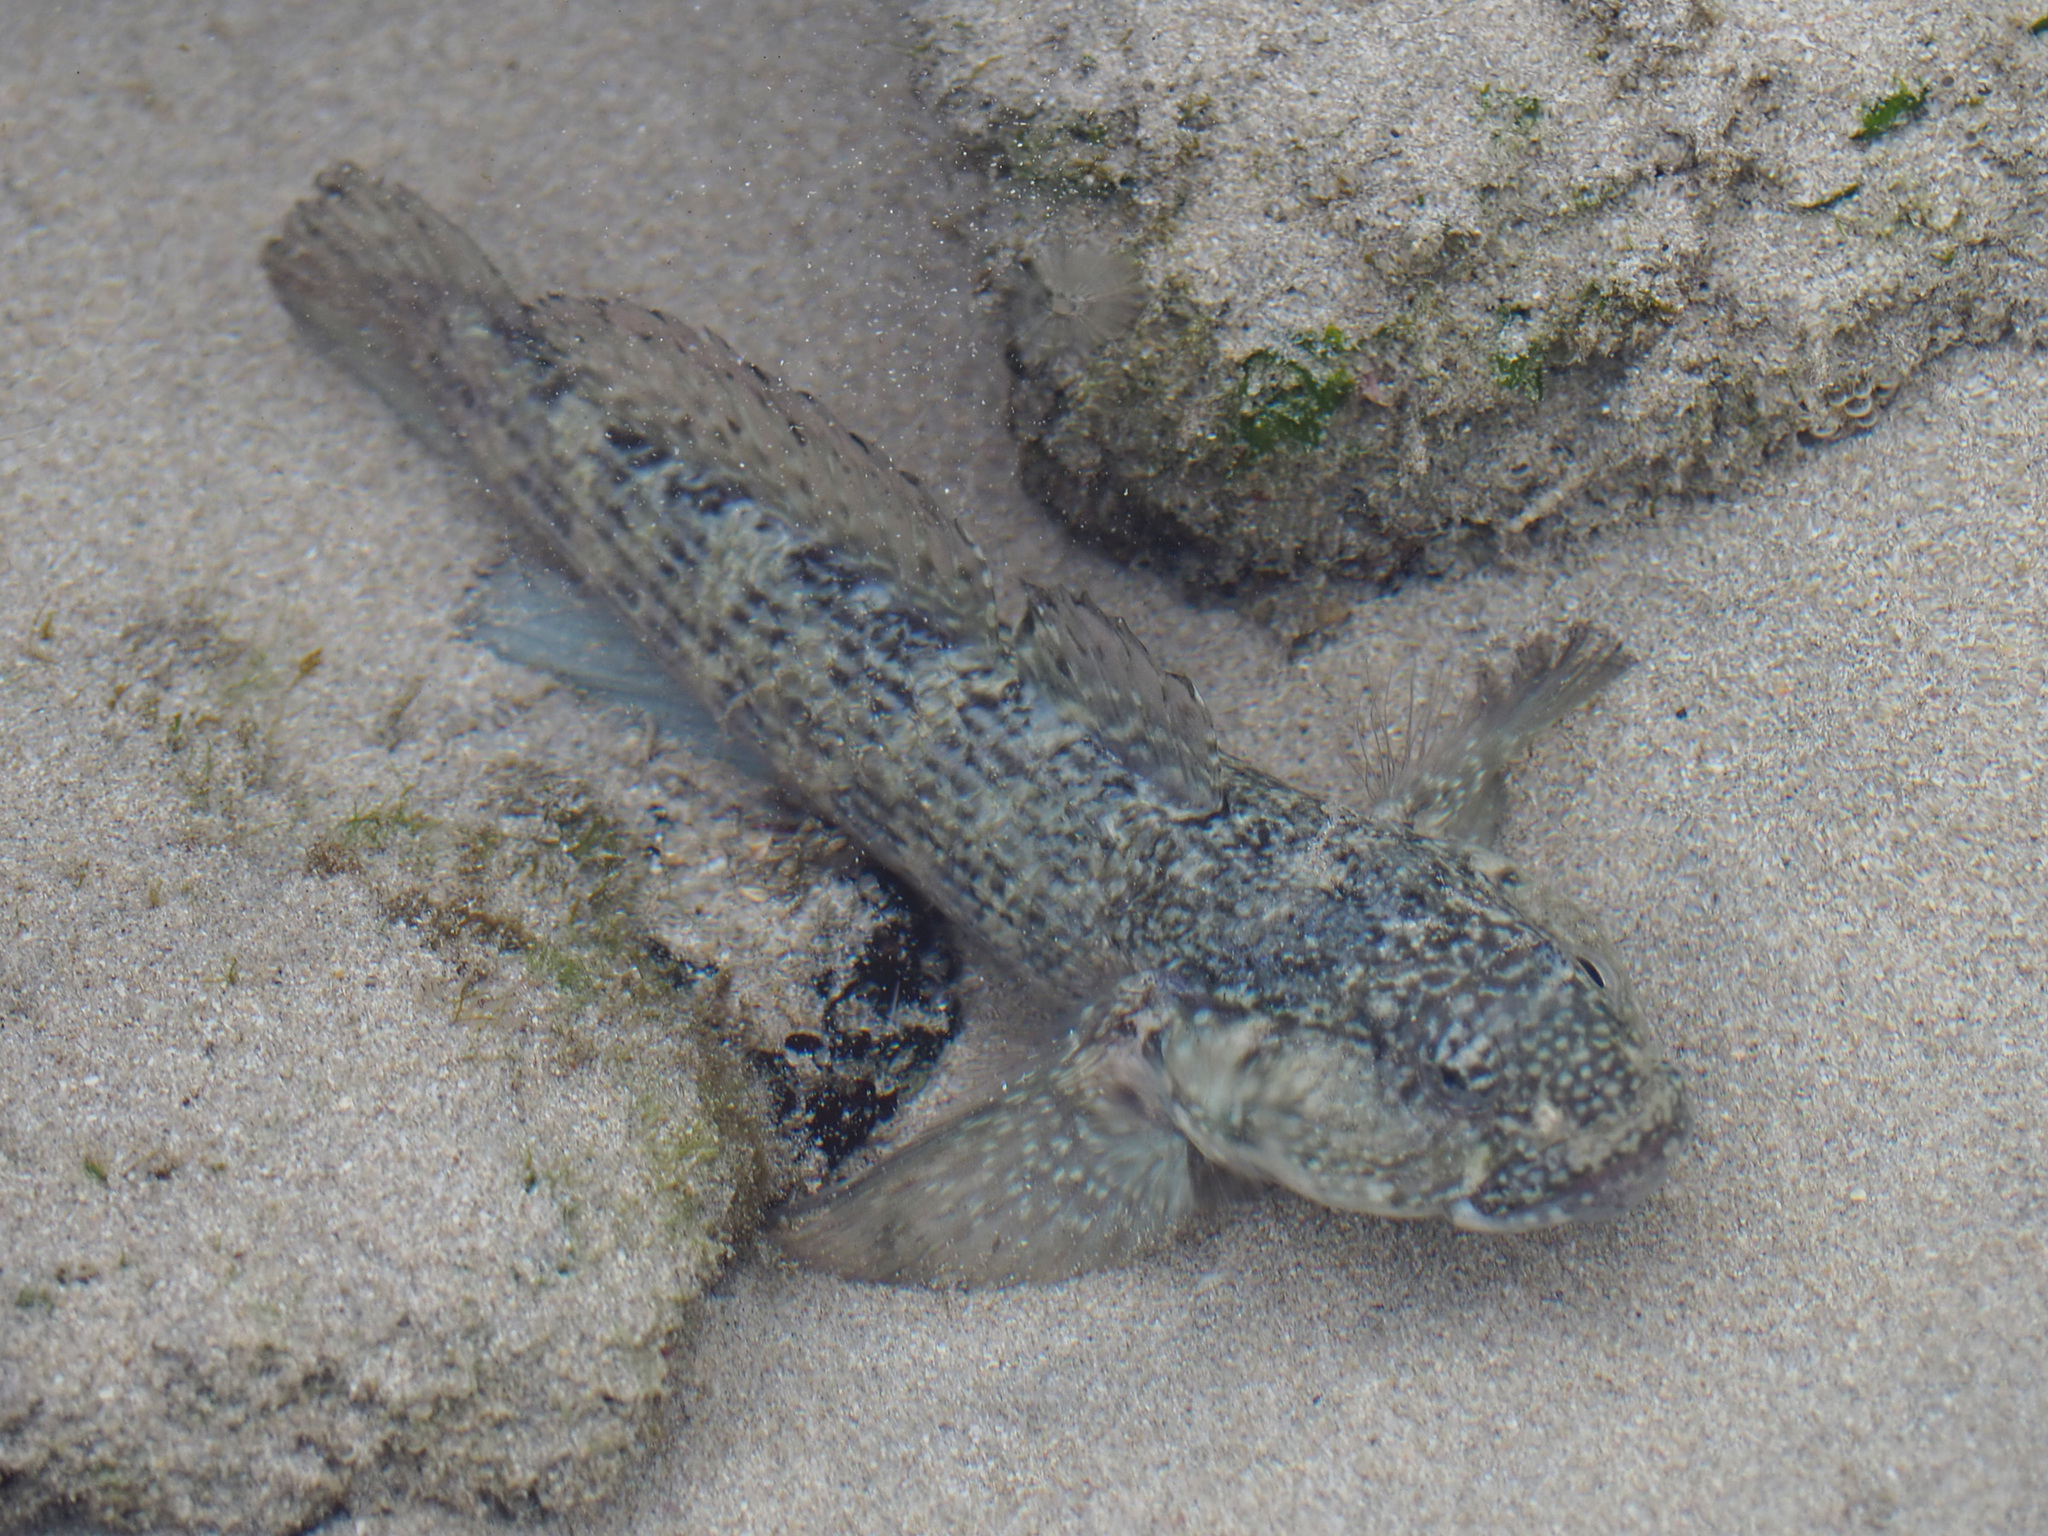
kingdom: Animalia
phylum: Chordata
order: Perciformes
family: Gobiidae
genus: Bathygobius
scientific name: Bathygobius lineatus
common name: Southern frillfin
